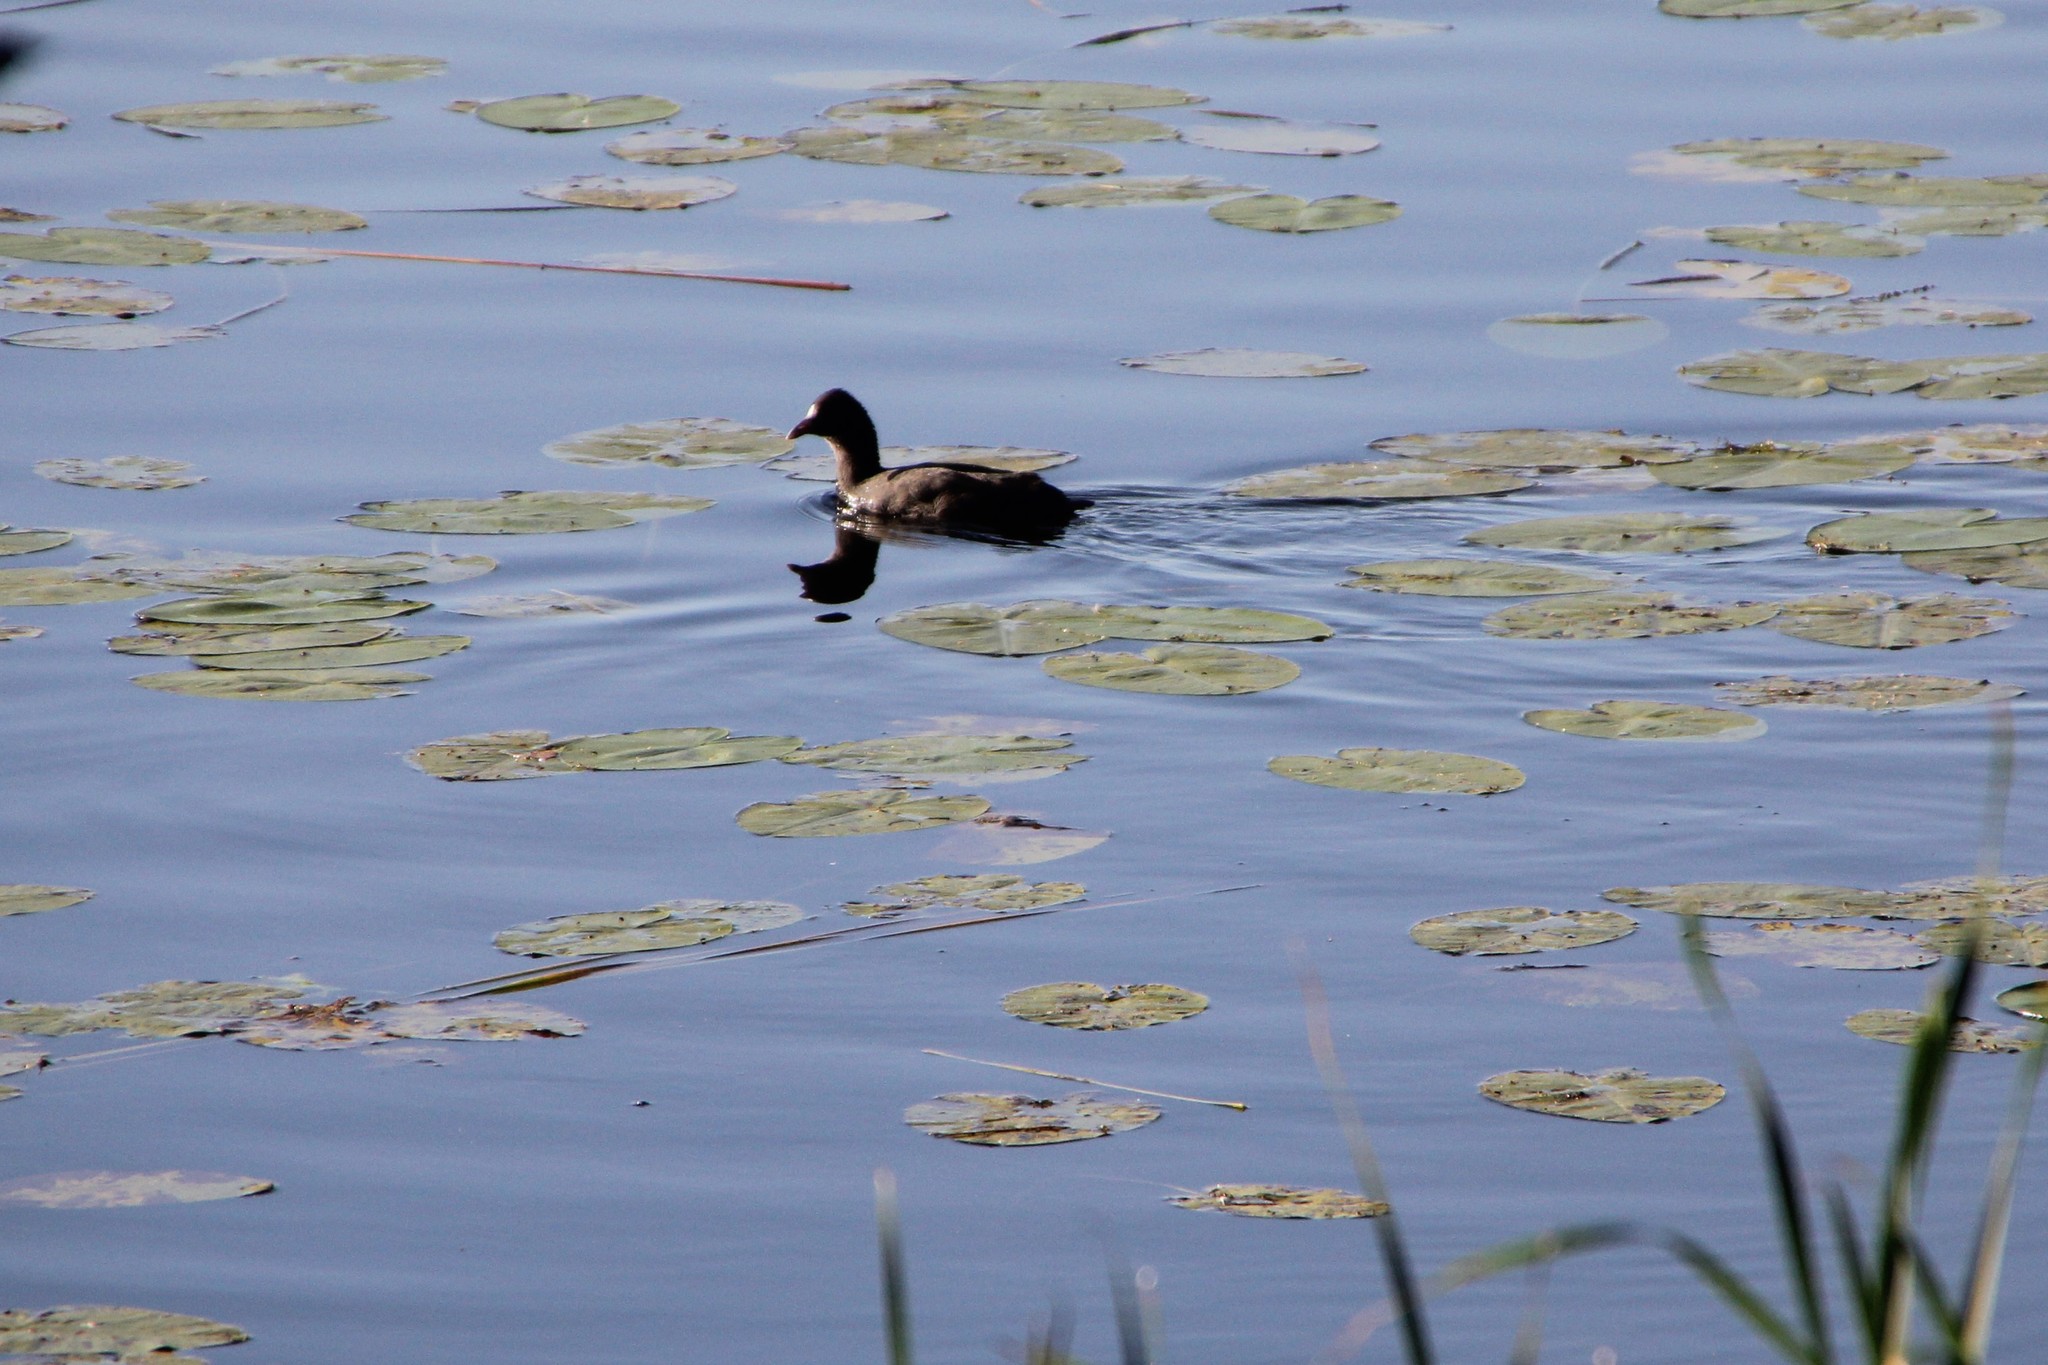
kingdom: Animalia
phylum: Chordata
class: Aves
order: Gruiformes
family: Rallidae
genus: Fulica
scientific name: Fulica atra
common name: Eurasian coot
